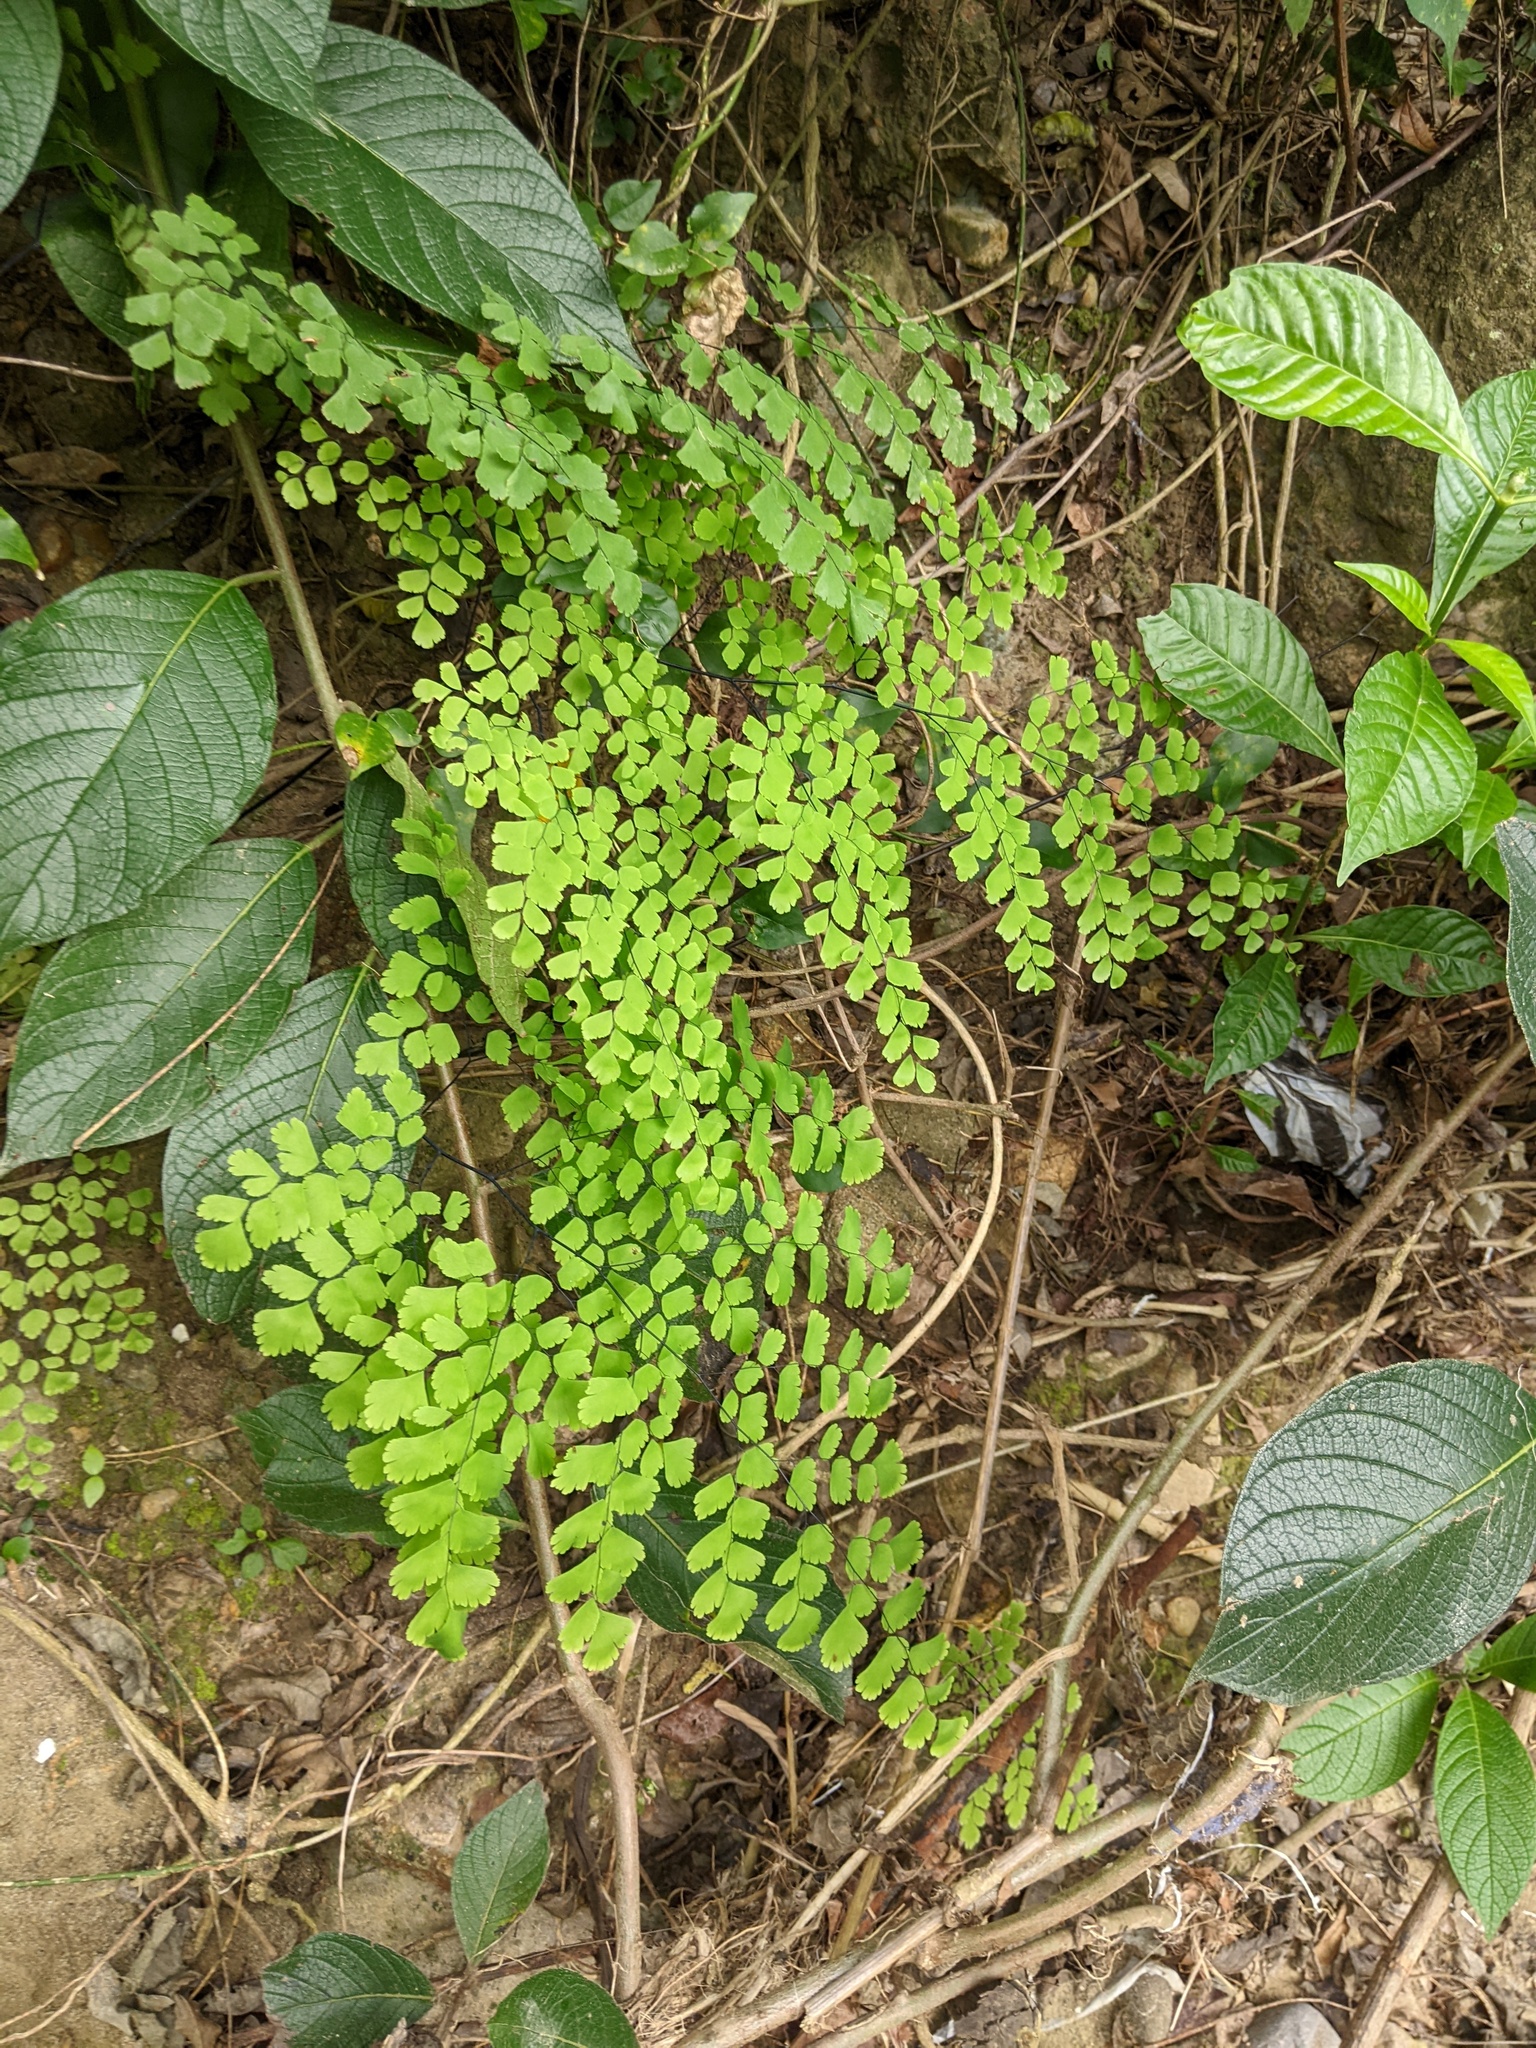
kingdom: Plantae
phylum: Tracheophyta
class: Polypodiopsida
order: Polypodiales
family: Pteridaceae
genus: Adiantum
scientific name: Adiantum tenerum
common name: Fan maidenhair
